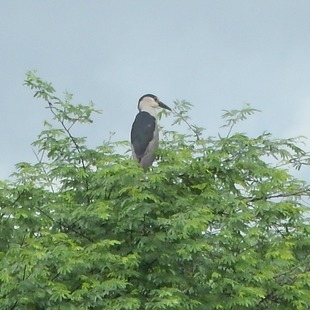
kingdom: Animalia
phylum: Chordata
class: Aves
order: Pelecaniformes
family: Ardeidae
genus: Nycticorax
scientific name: Nycticorax nycticorax
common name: Black-crowned night heron
